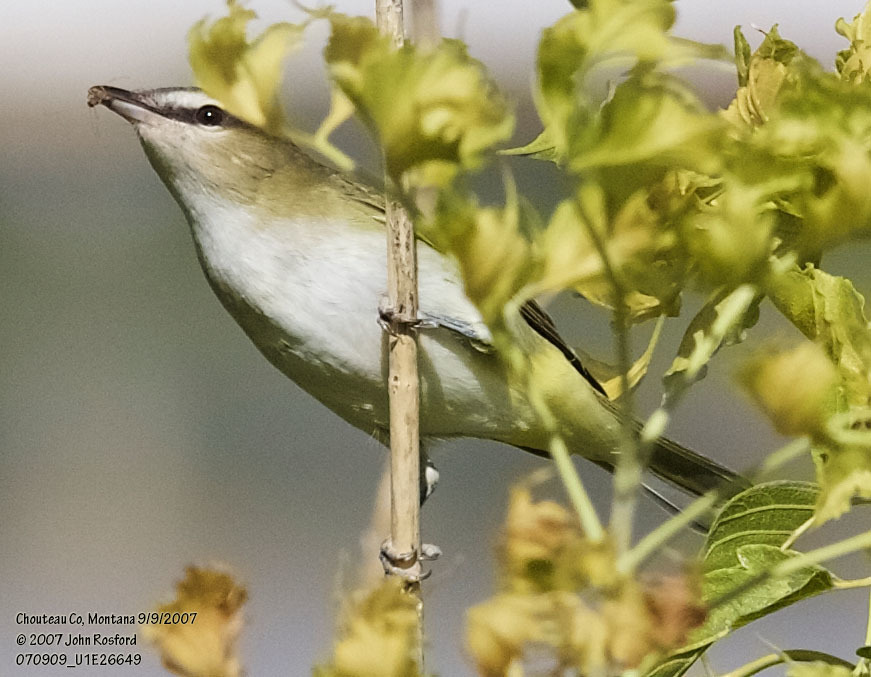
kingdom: Animalia
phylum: Chordata
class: Aves
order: Passeriformes
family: Vireonidae
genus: Vireo
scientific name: Vireo olivaceus
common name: Red-eyed vireo
